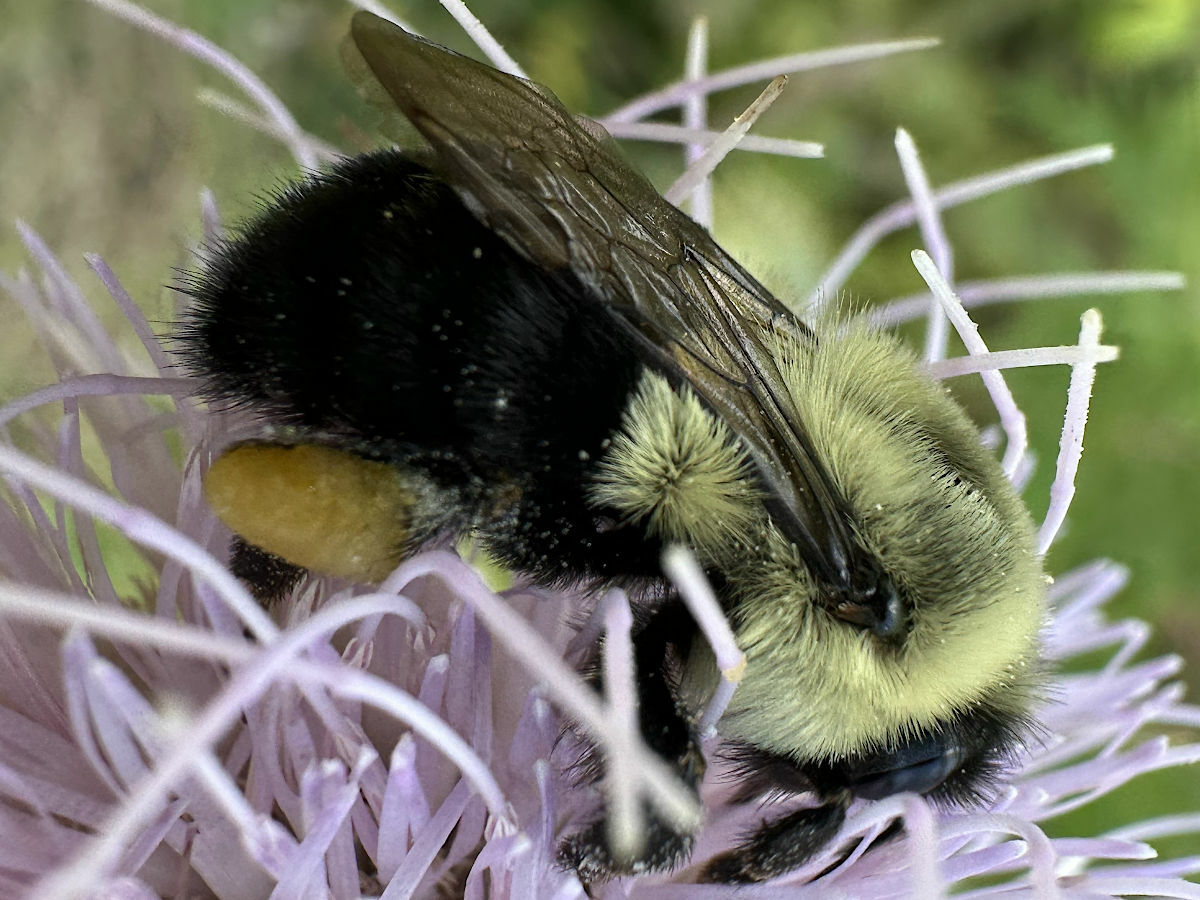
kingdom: Animalia
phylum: Arthropoda
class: Insecta
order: Hymenoptera
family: Apidae
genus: Bombus
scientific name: Bombus impatiens
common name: Common eastern bumble bee
